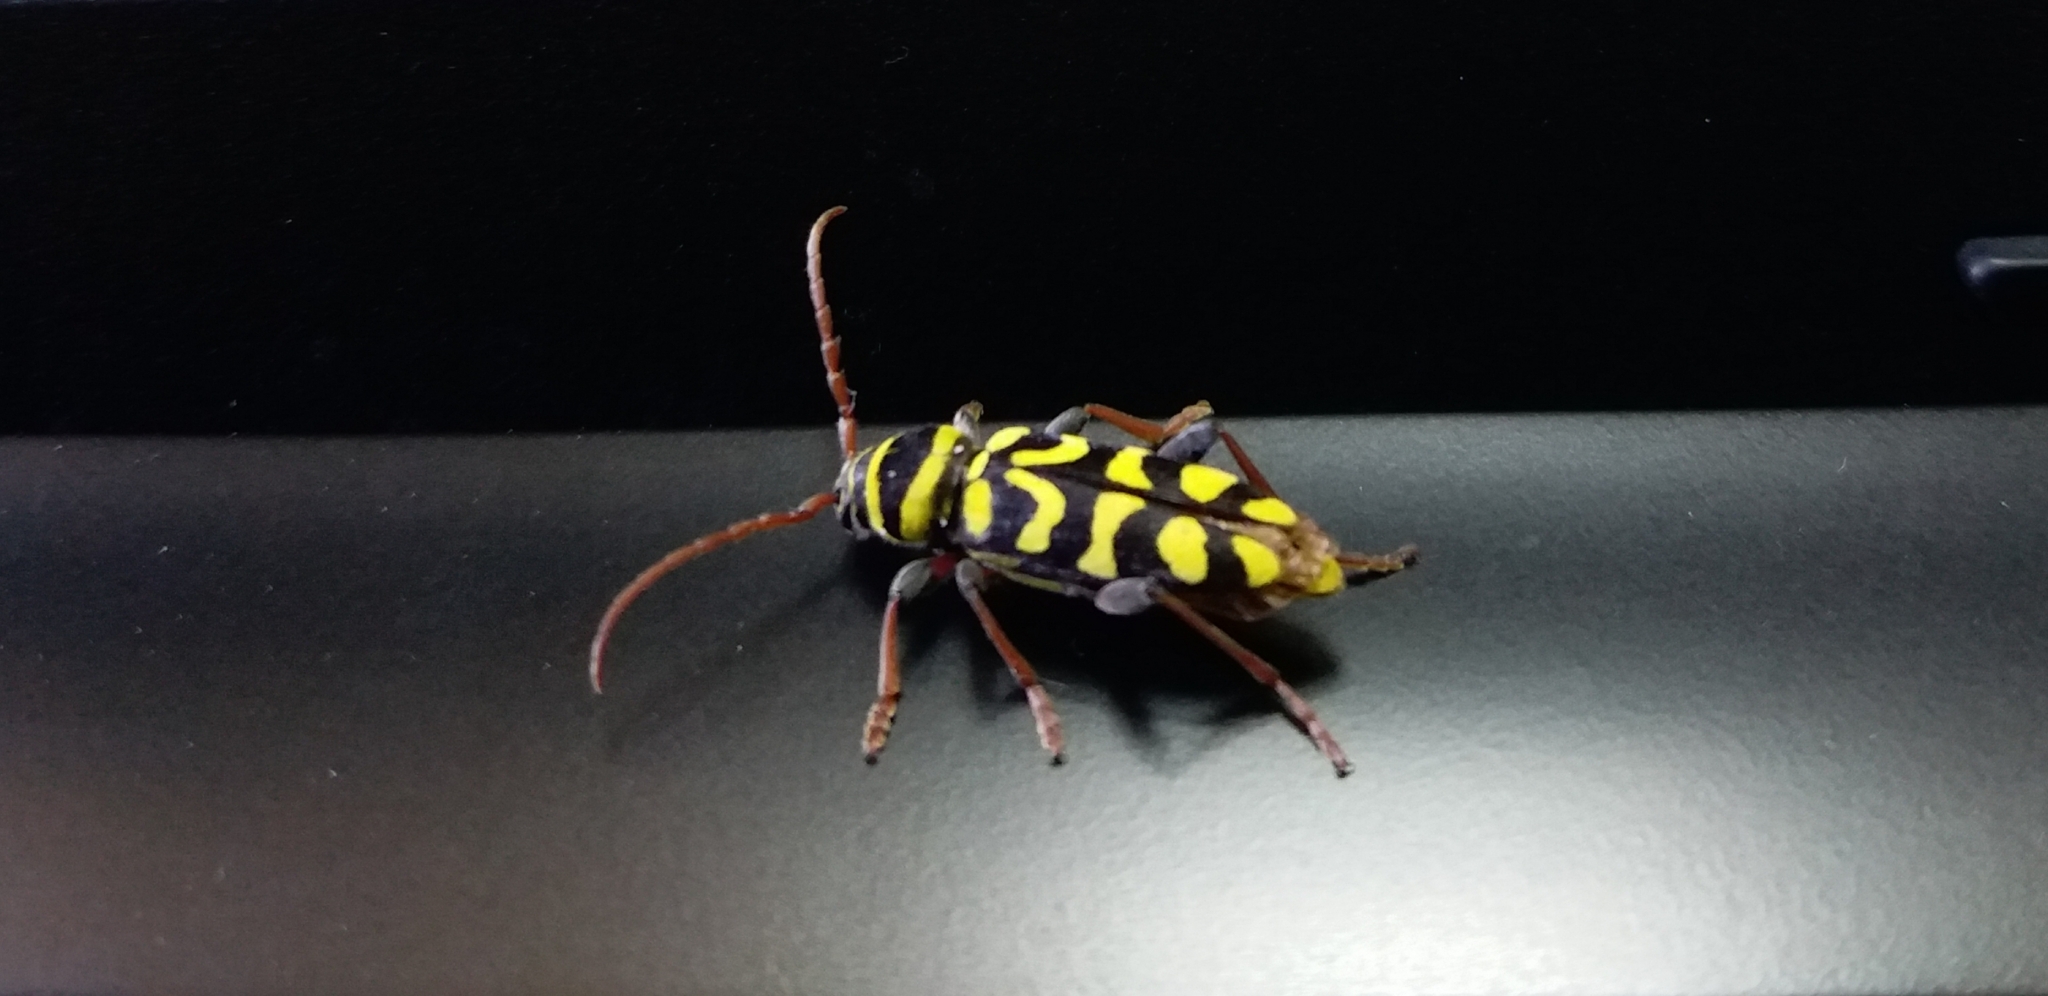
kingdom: Animalia
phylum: Arthropoda
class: Insecta
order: Coleoptera
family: Cerambycidae
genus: Neoplagionotus
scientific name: Neoplagionotus scalaris
